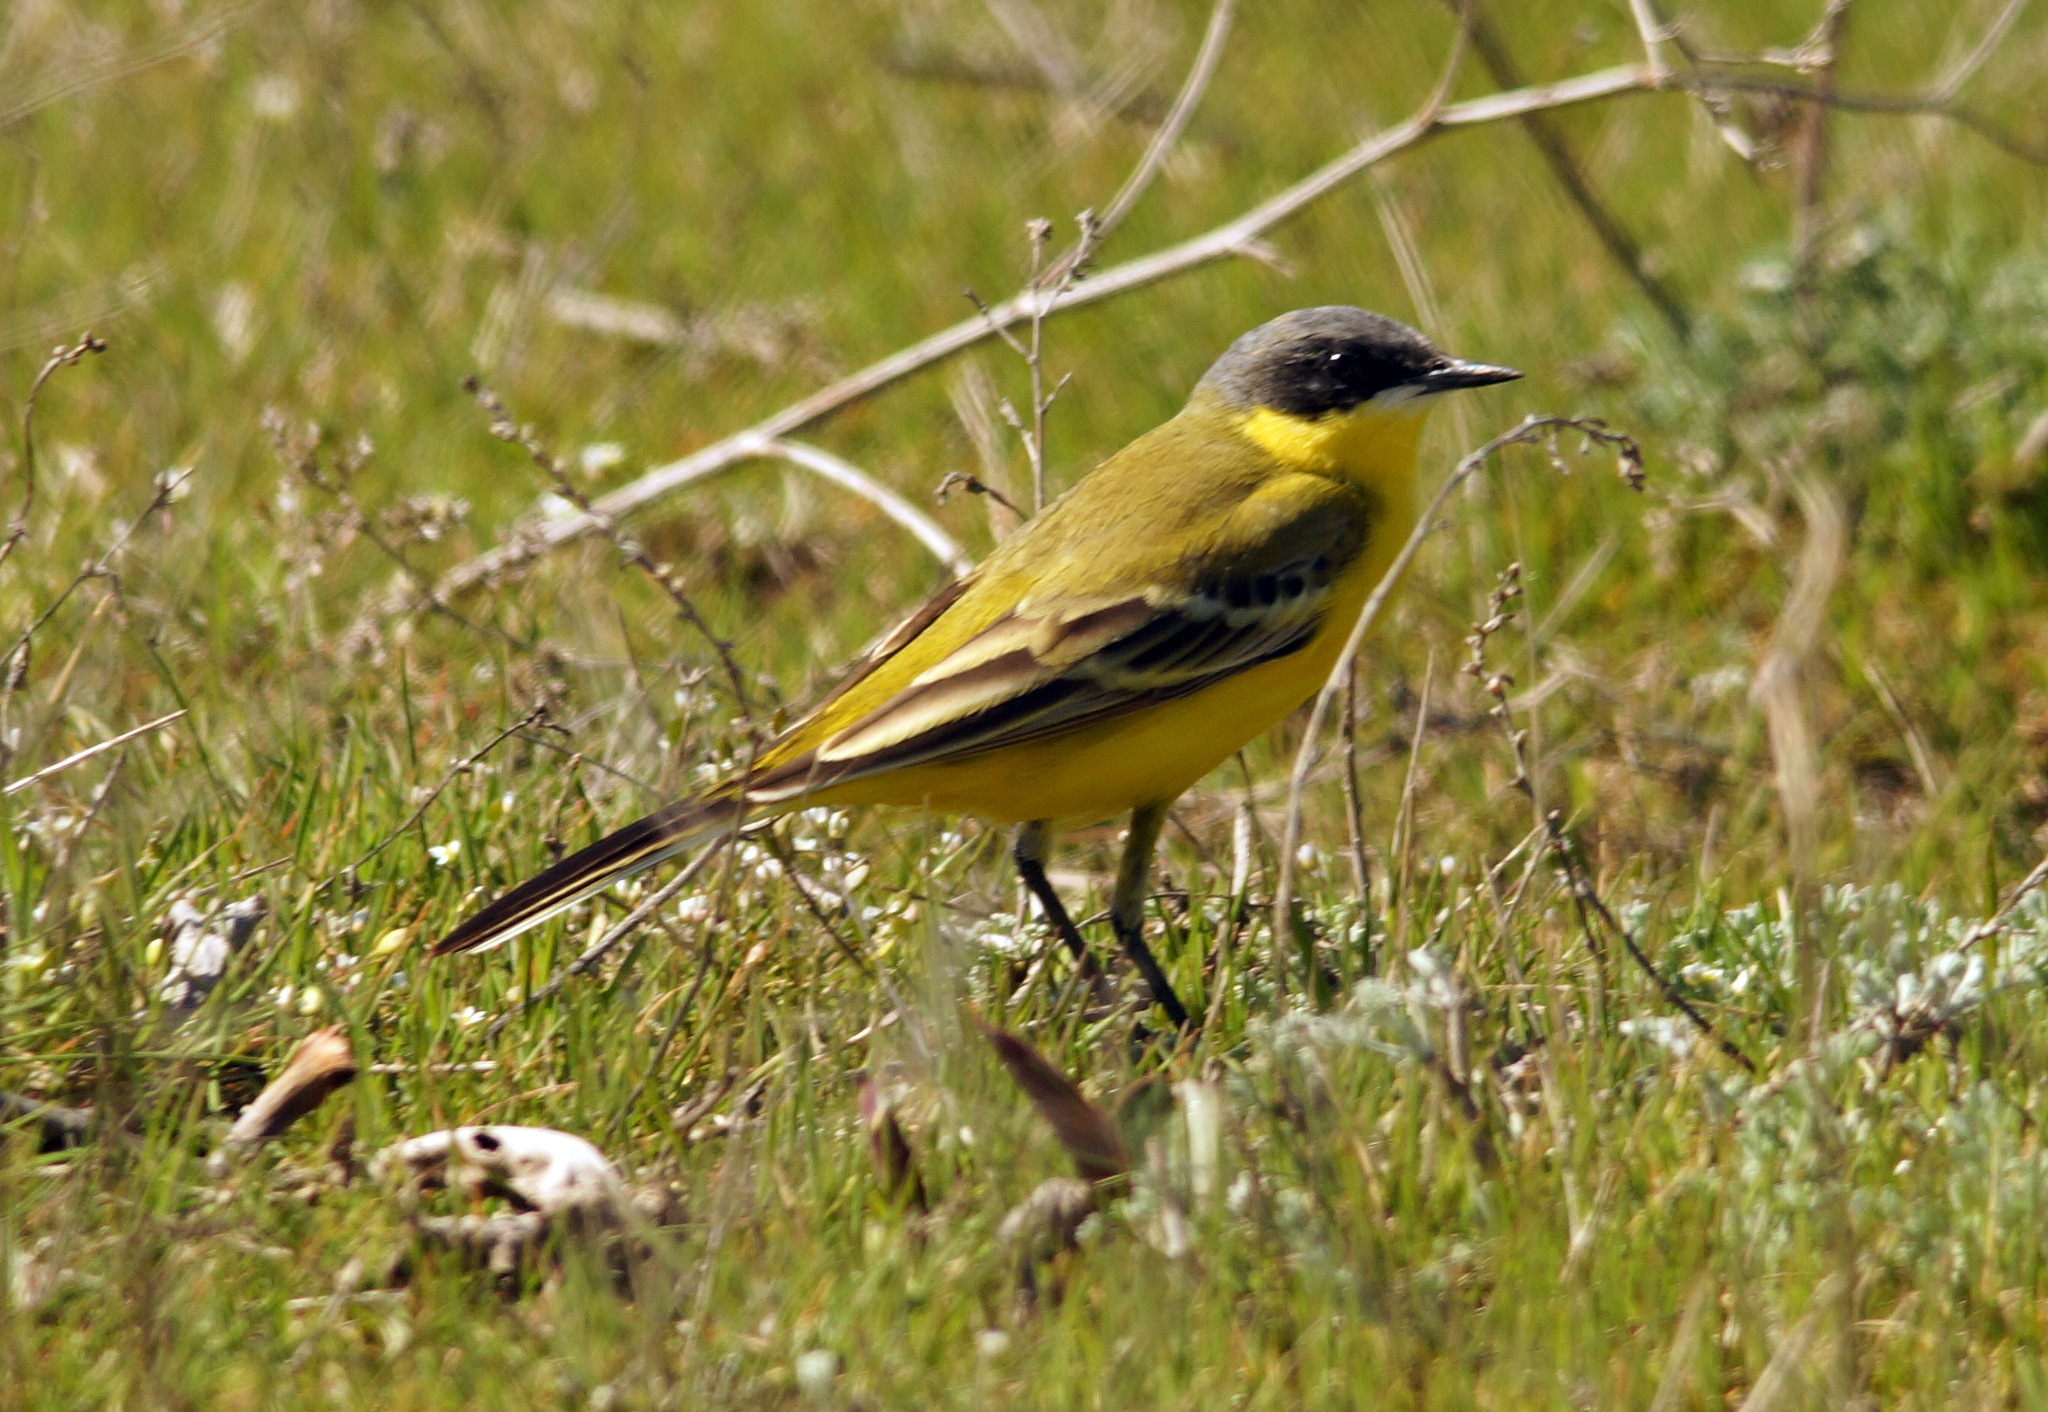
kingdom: Animalia
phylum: Chordata
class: Aves
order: Passeriformes
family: Motacillidae
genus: Motacilla
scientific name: Motacilla flava
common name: Western yellow wagtail
